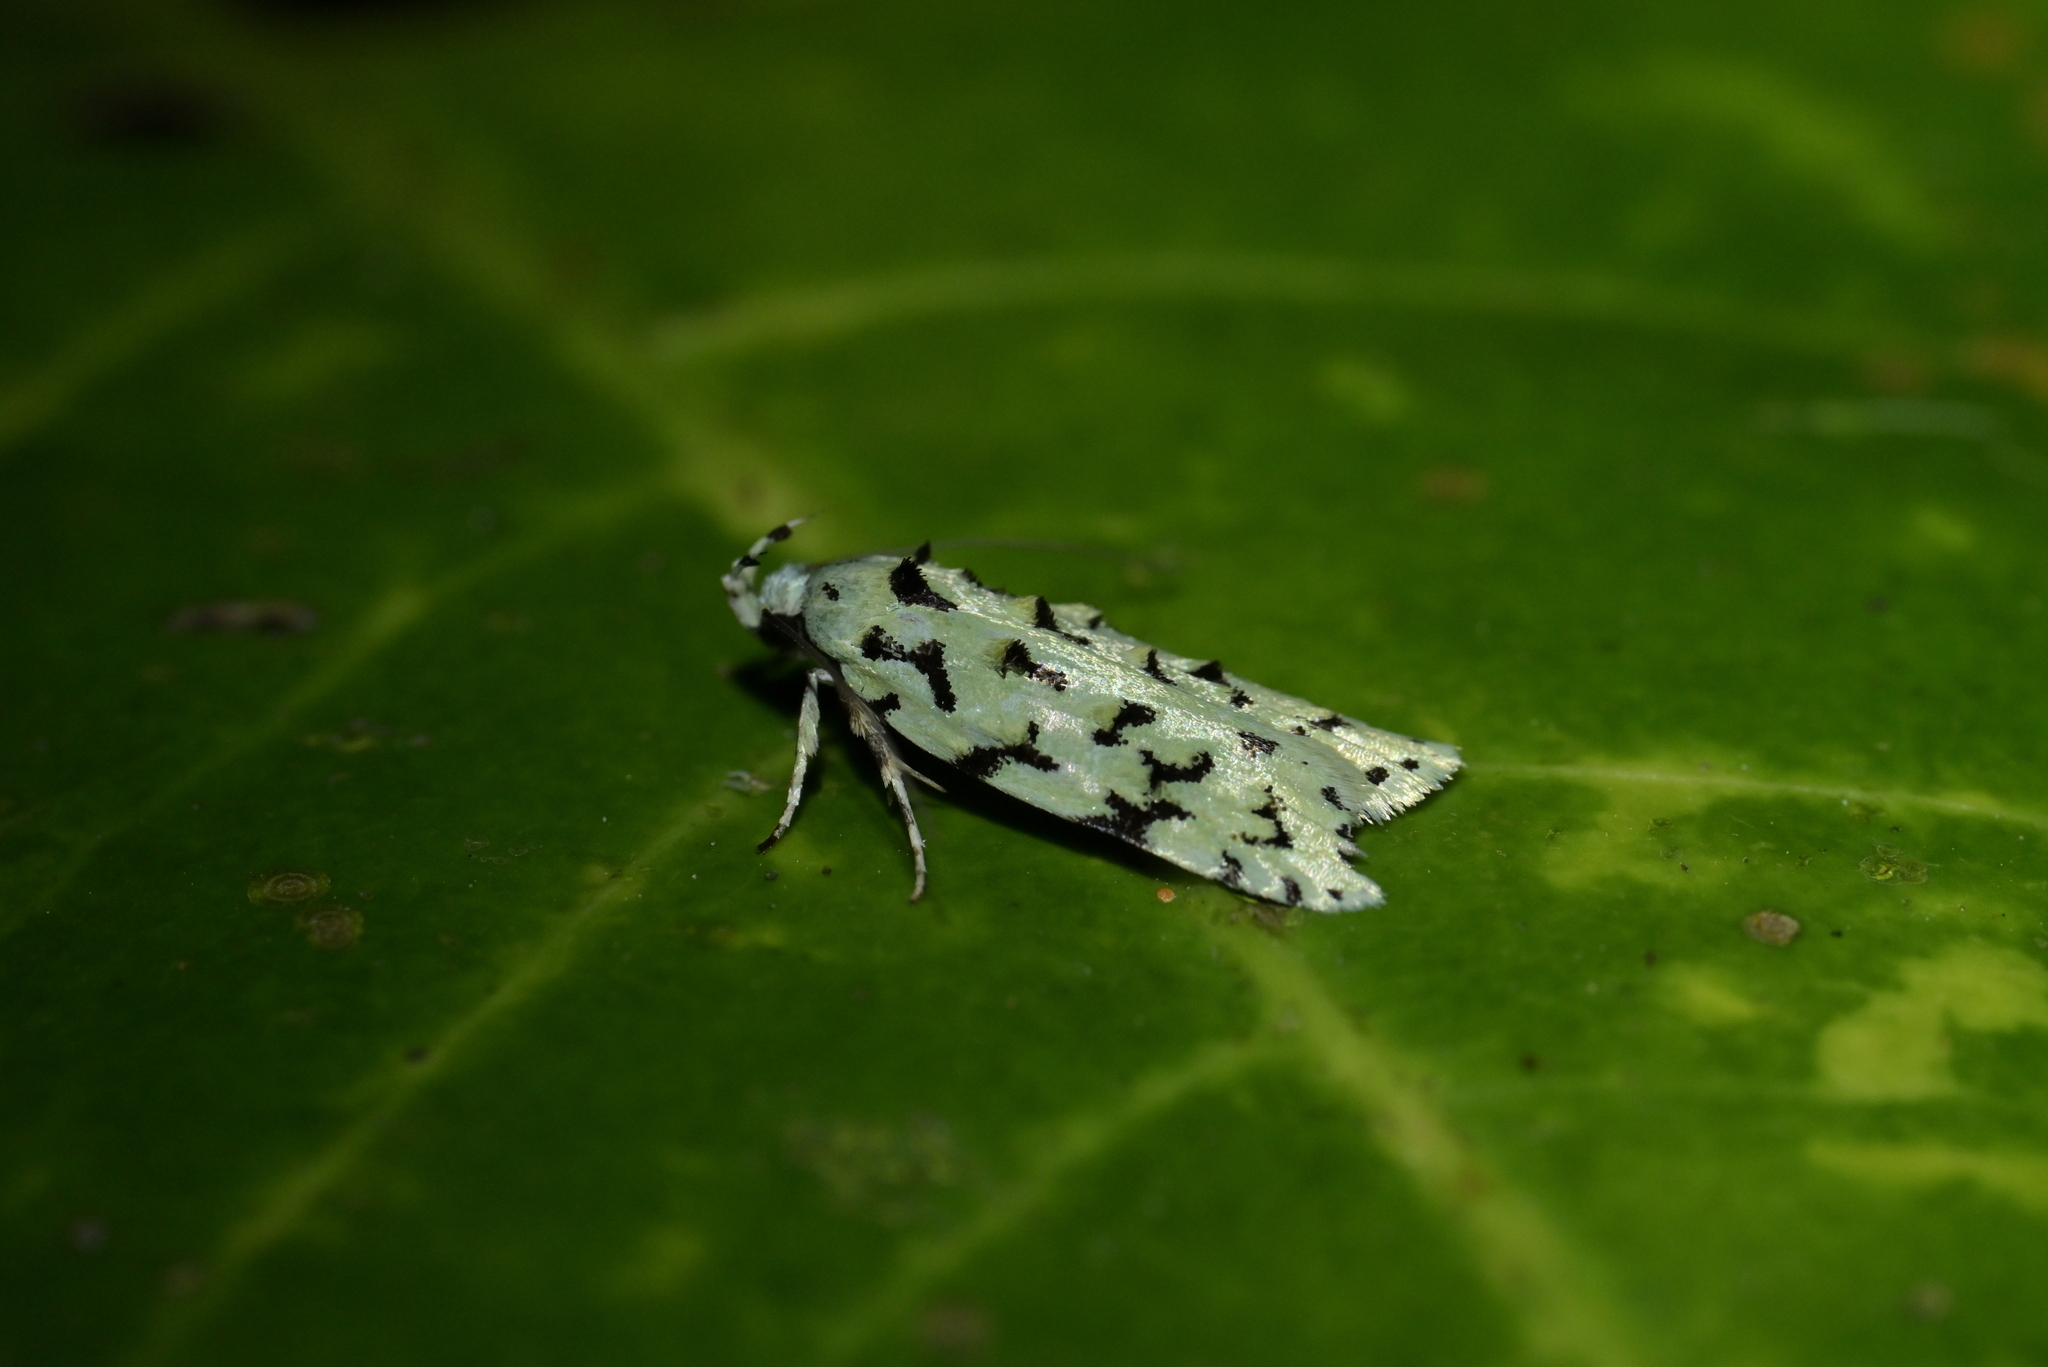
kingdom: Animalia
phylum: Arthropoda
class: Insecta
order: Lepidoptera
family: Oecophoridae
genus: Izatha
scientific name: Izatha peroneanella
